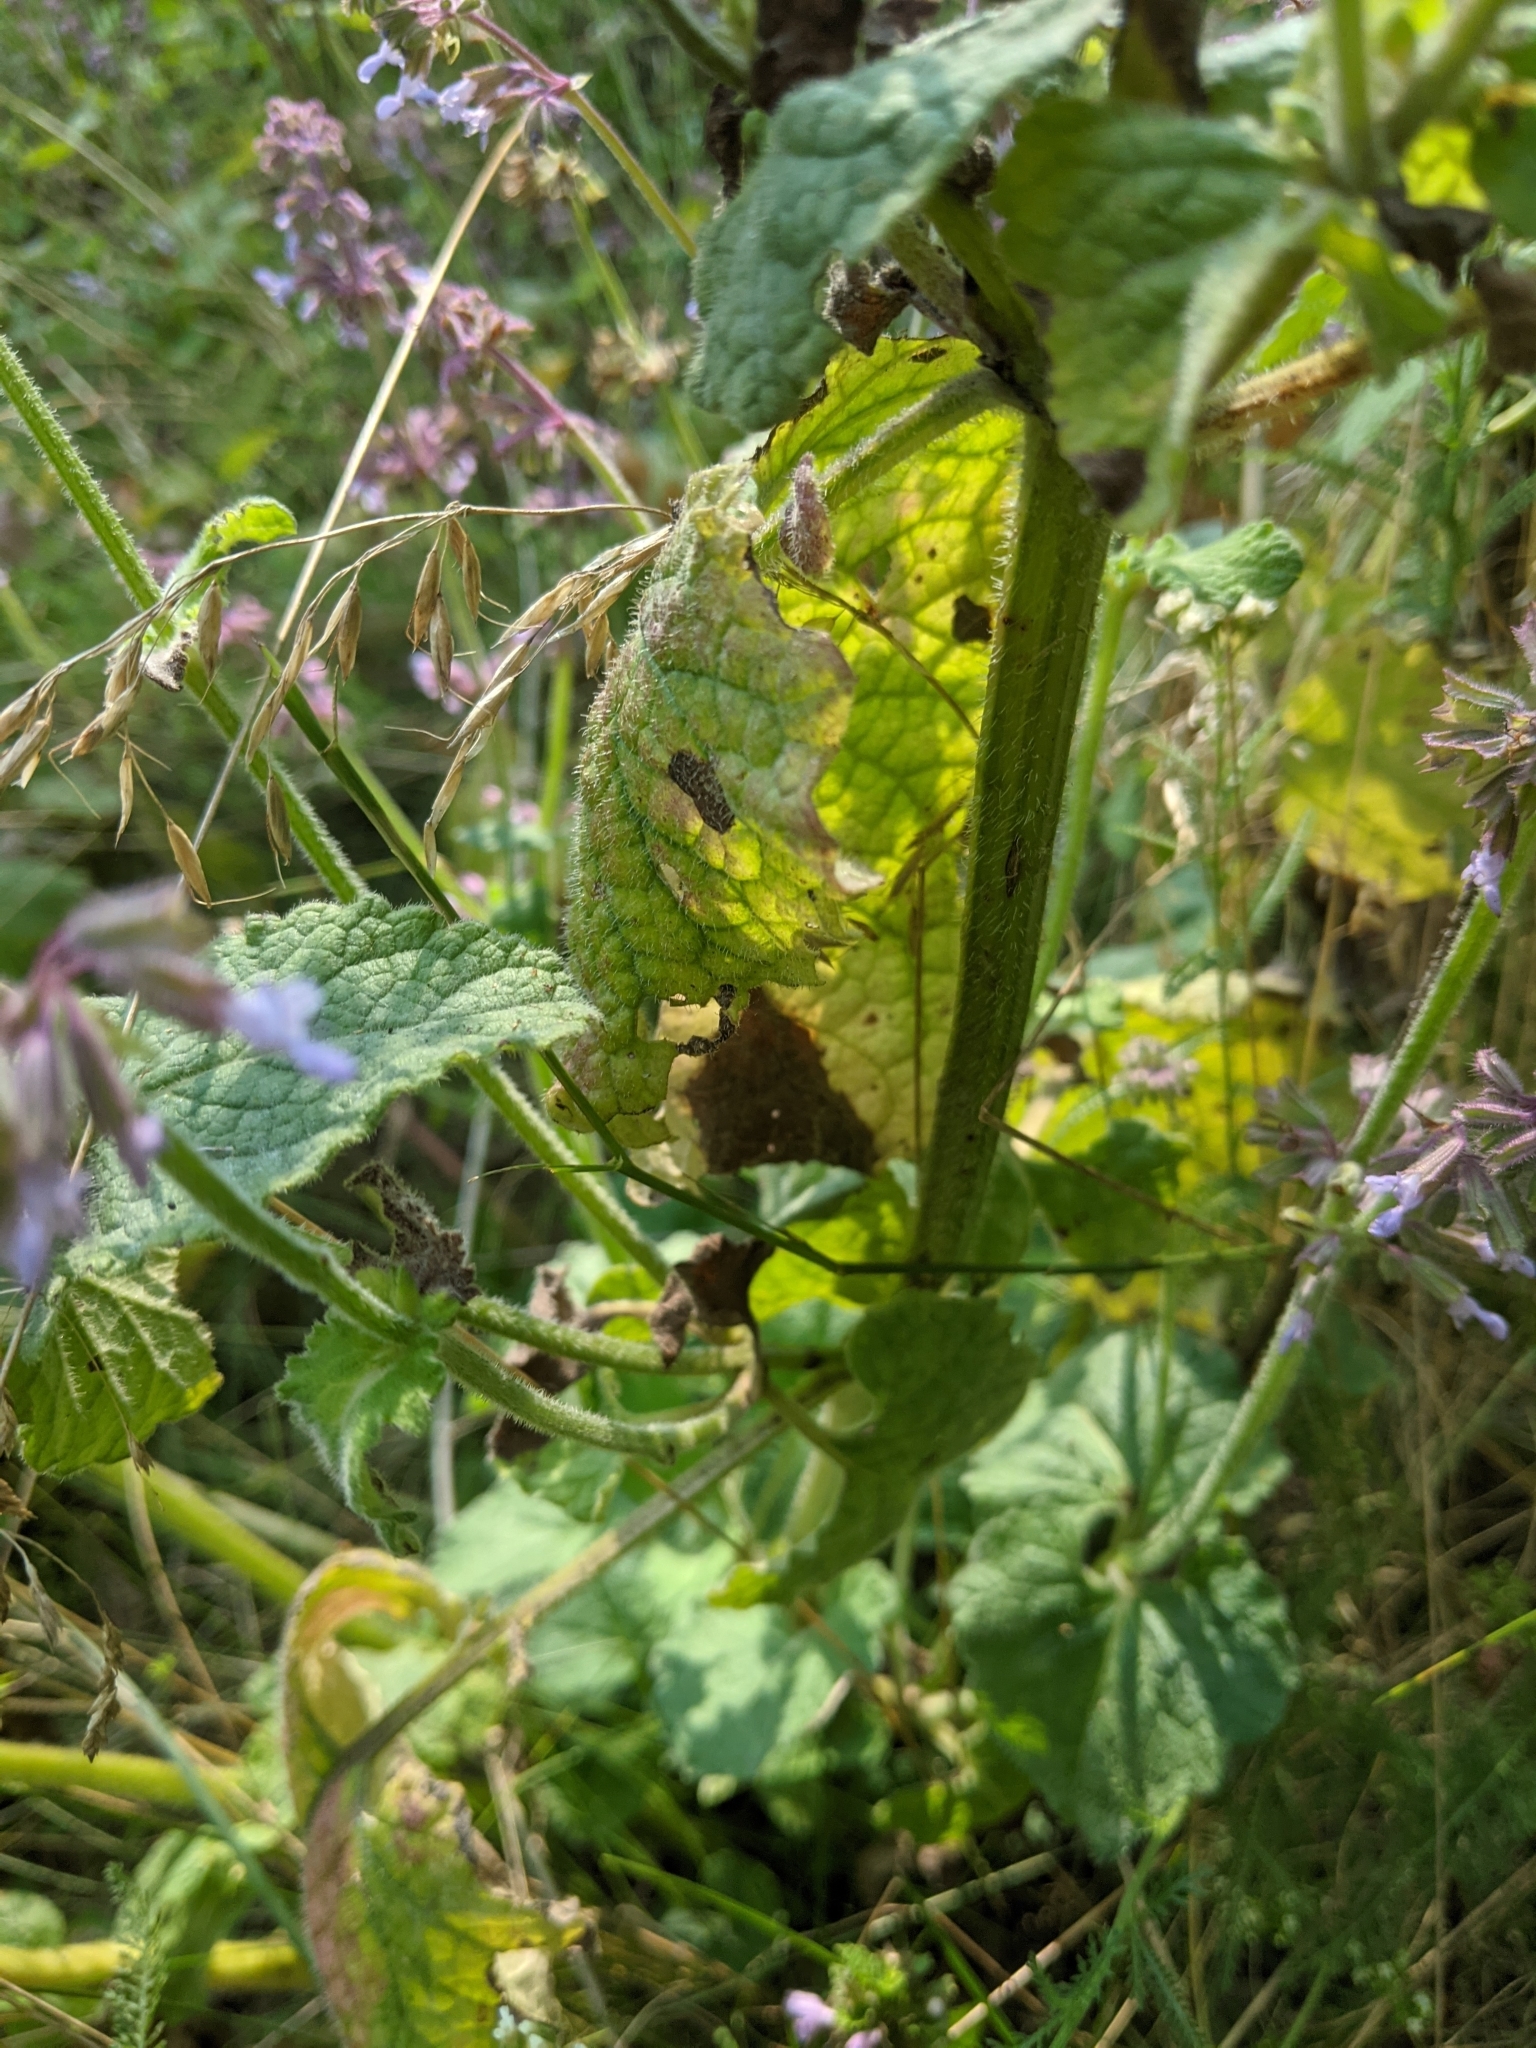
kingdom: Plantae
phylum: Tracheophyta
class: Magnoliopsida
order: Lamiales
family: Lamiaceae
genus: Salvia
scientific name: Salvia verticillata
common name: Whorled clary
